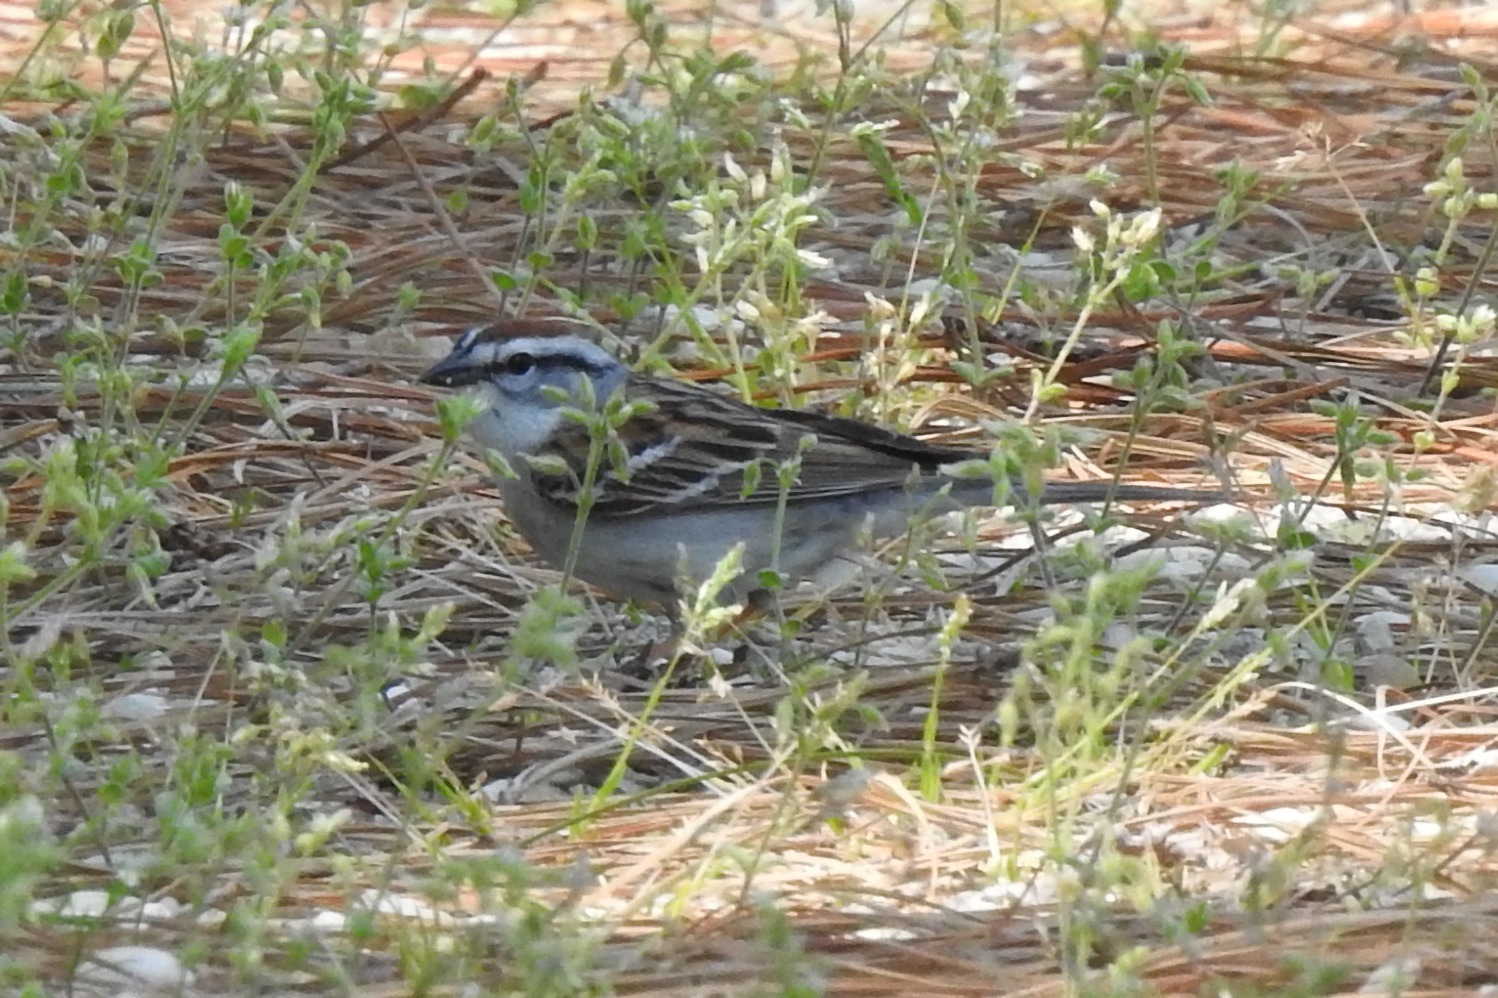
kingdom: Animalia
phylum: Chordata
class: Aves
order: Passeriformes
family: Passerellidae
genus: Spizella
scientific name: Spizella passerina
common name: Chipping sparrow
